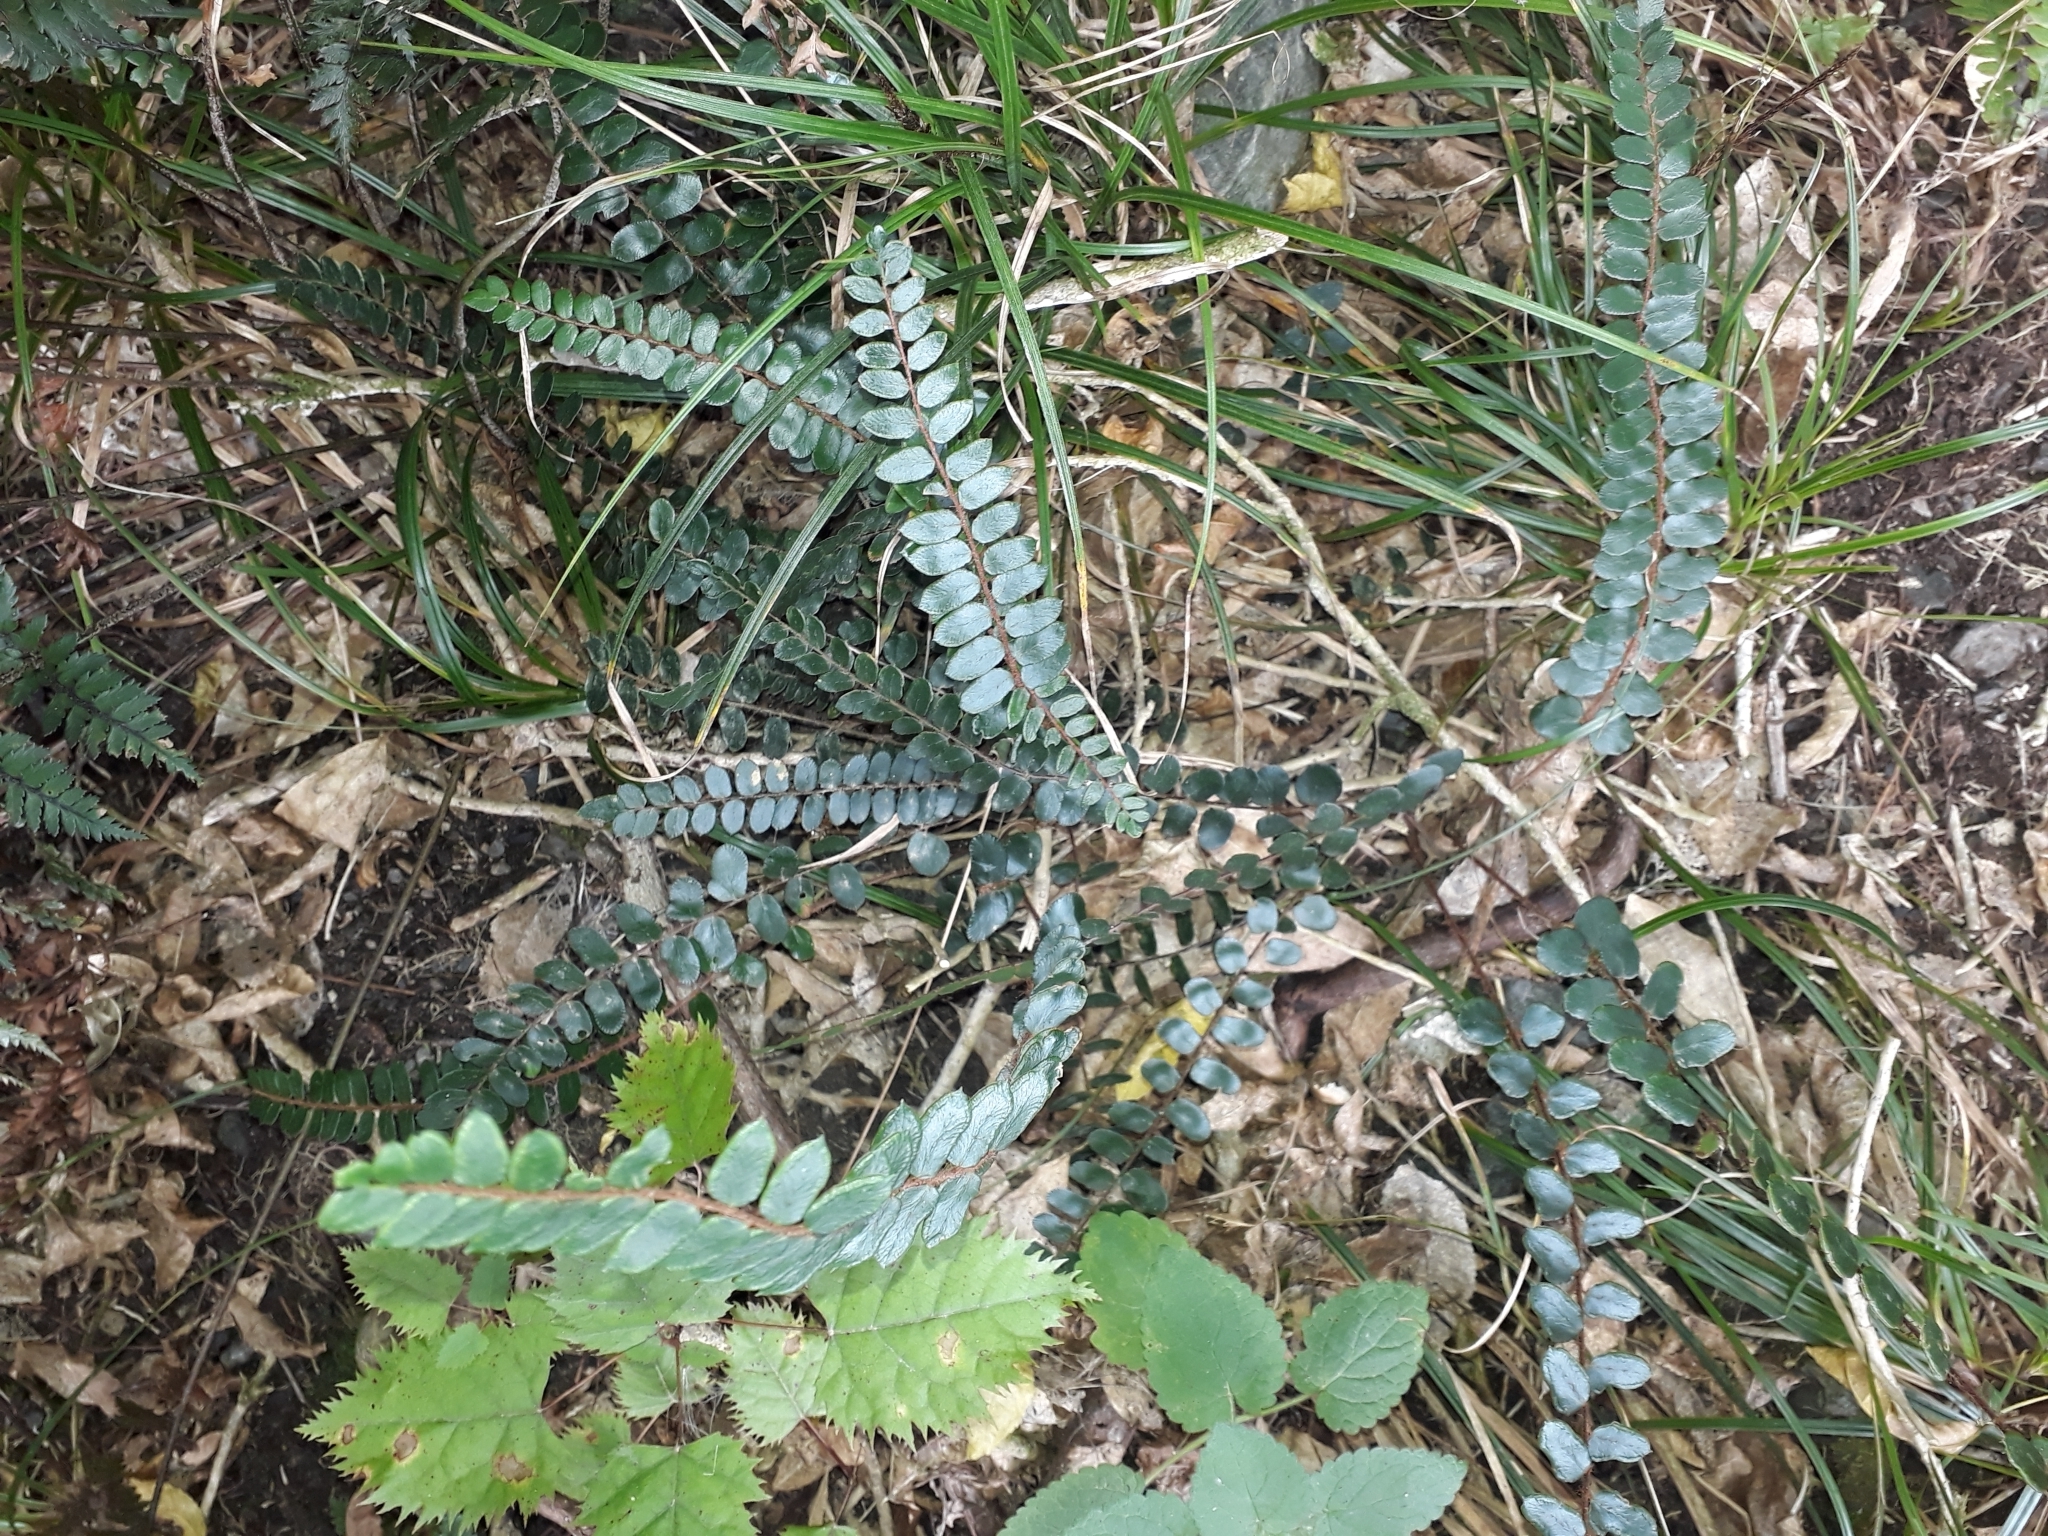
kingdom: Plantae
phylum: Tracheophyta
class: Polypodiopsida
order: Polypodiales
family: Pteridaceae
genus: Pellaea
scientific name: Pellaea rotundifolia
